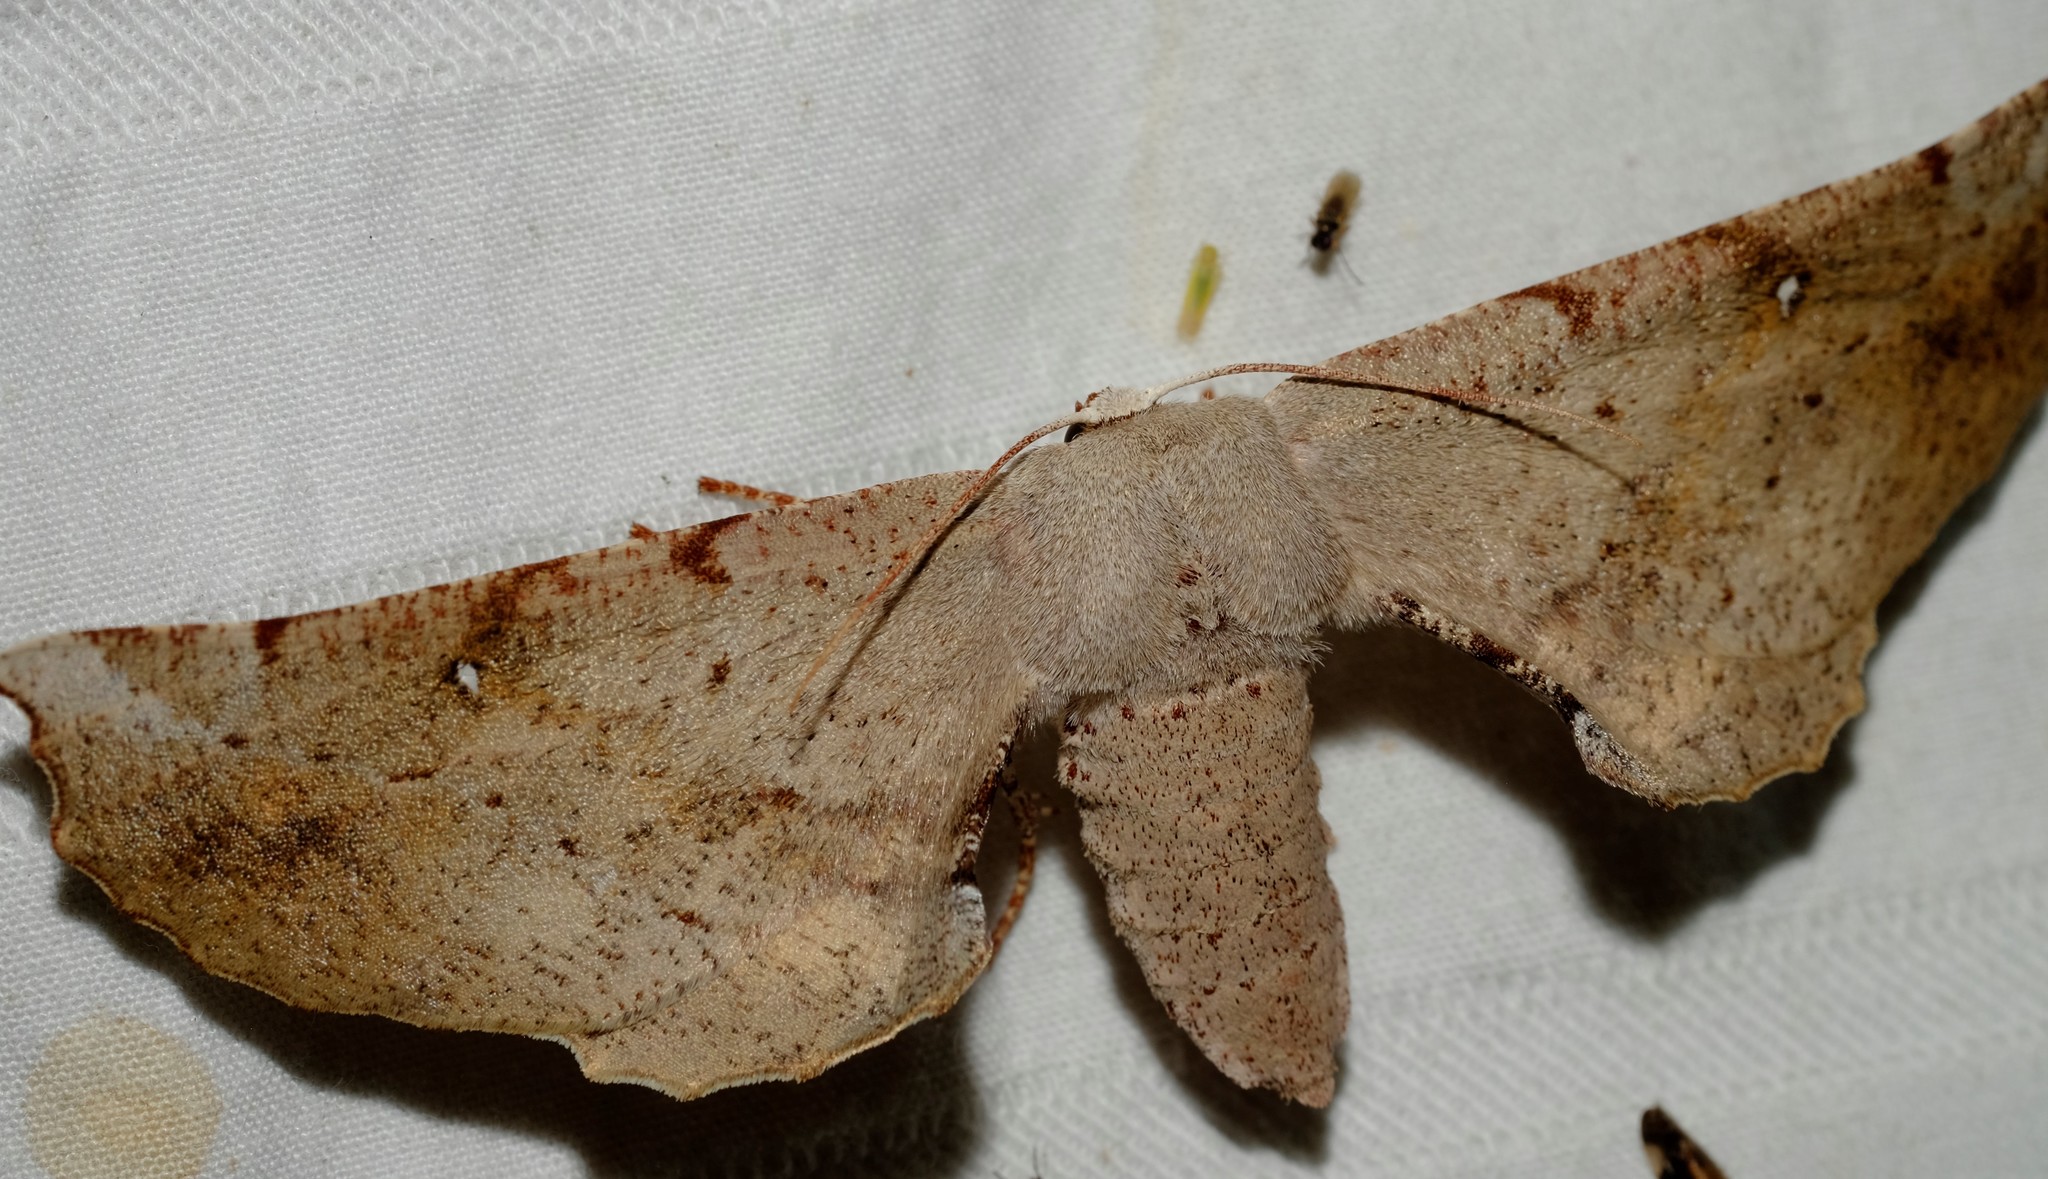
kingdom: Animalia
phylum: Arthropoda
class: Insecta
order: Lepidoptera
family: Geometridae
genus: Circopetes
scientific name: Circopetes obtusata
